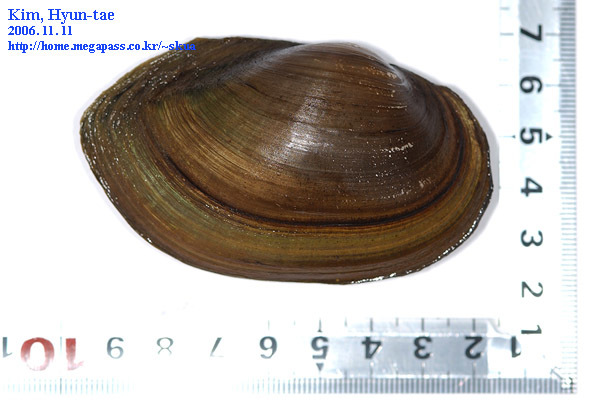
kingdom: Animalia
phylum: Mollusca
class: Bivalvia
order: Unionida
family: Unionidae
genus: Buldowskia
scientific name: Buldowskia shadini
